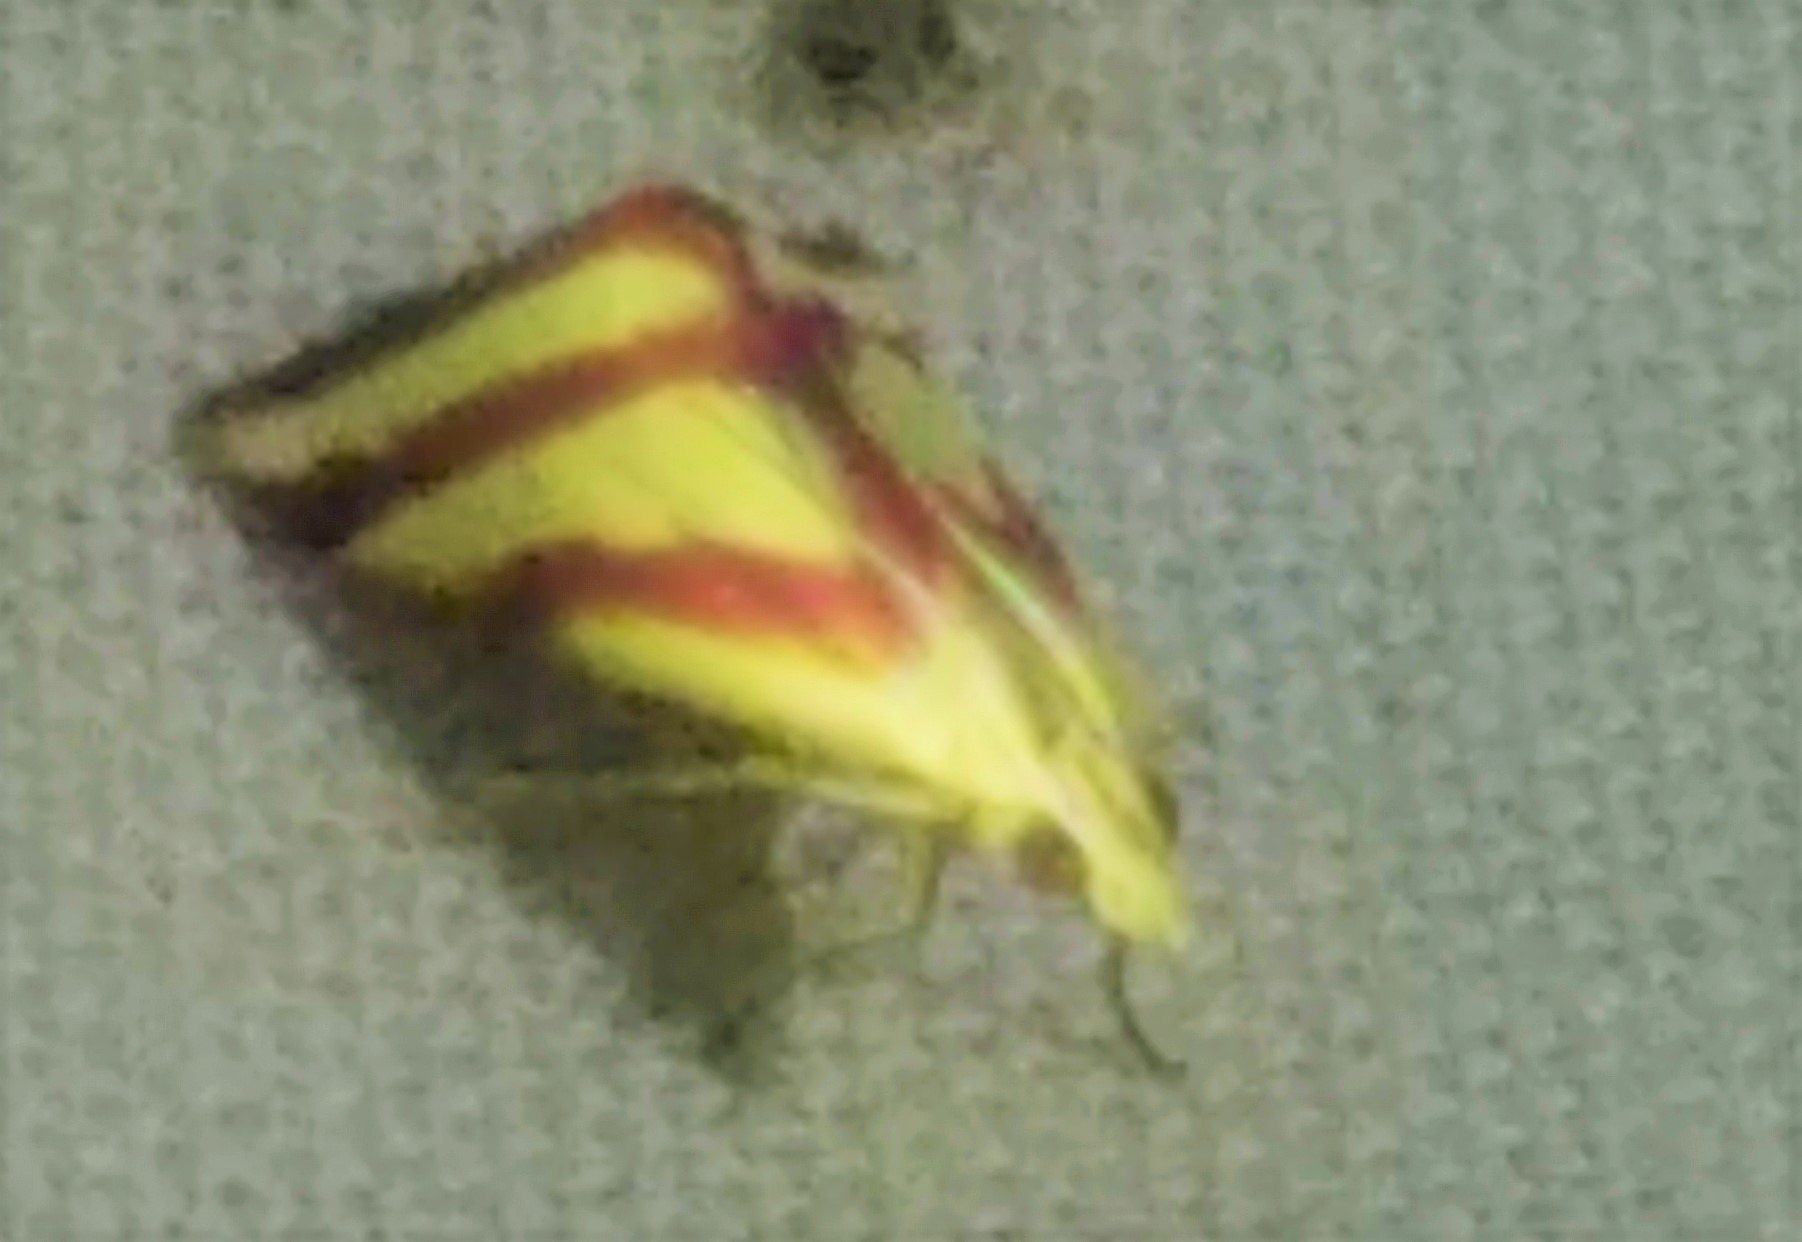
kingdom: Animalia
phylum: Arthropoda
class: Insecta
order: Lepidoptera
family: Crambidae
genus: Microtheoris
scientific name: Microtheoris vibicalis
